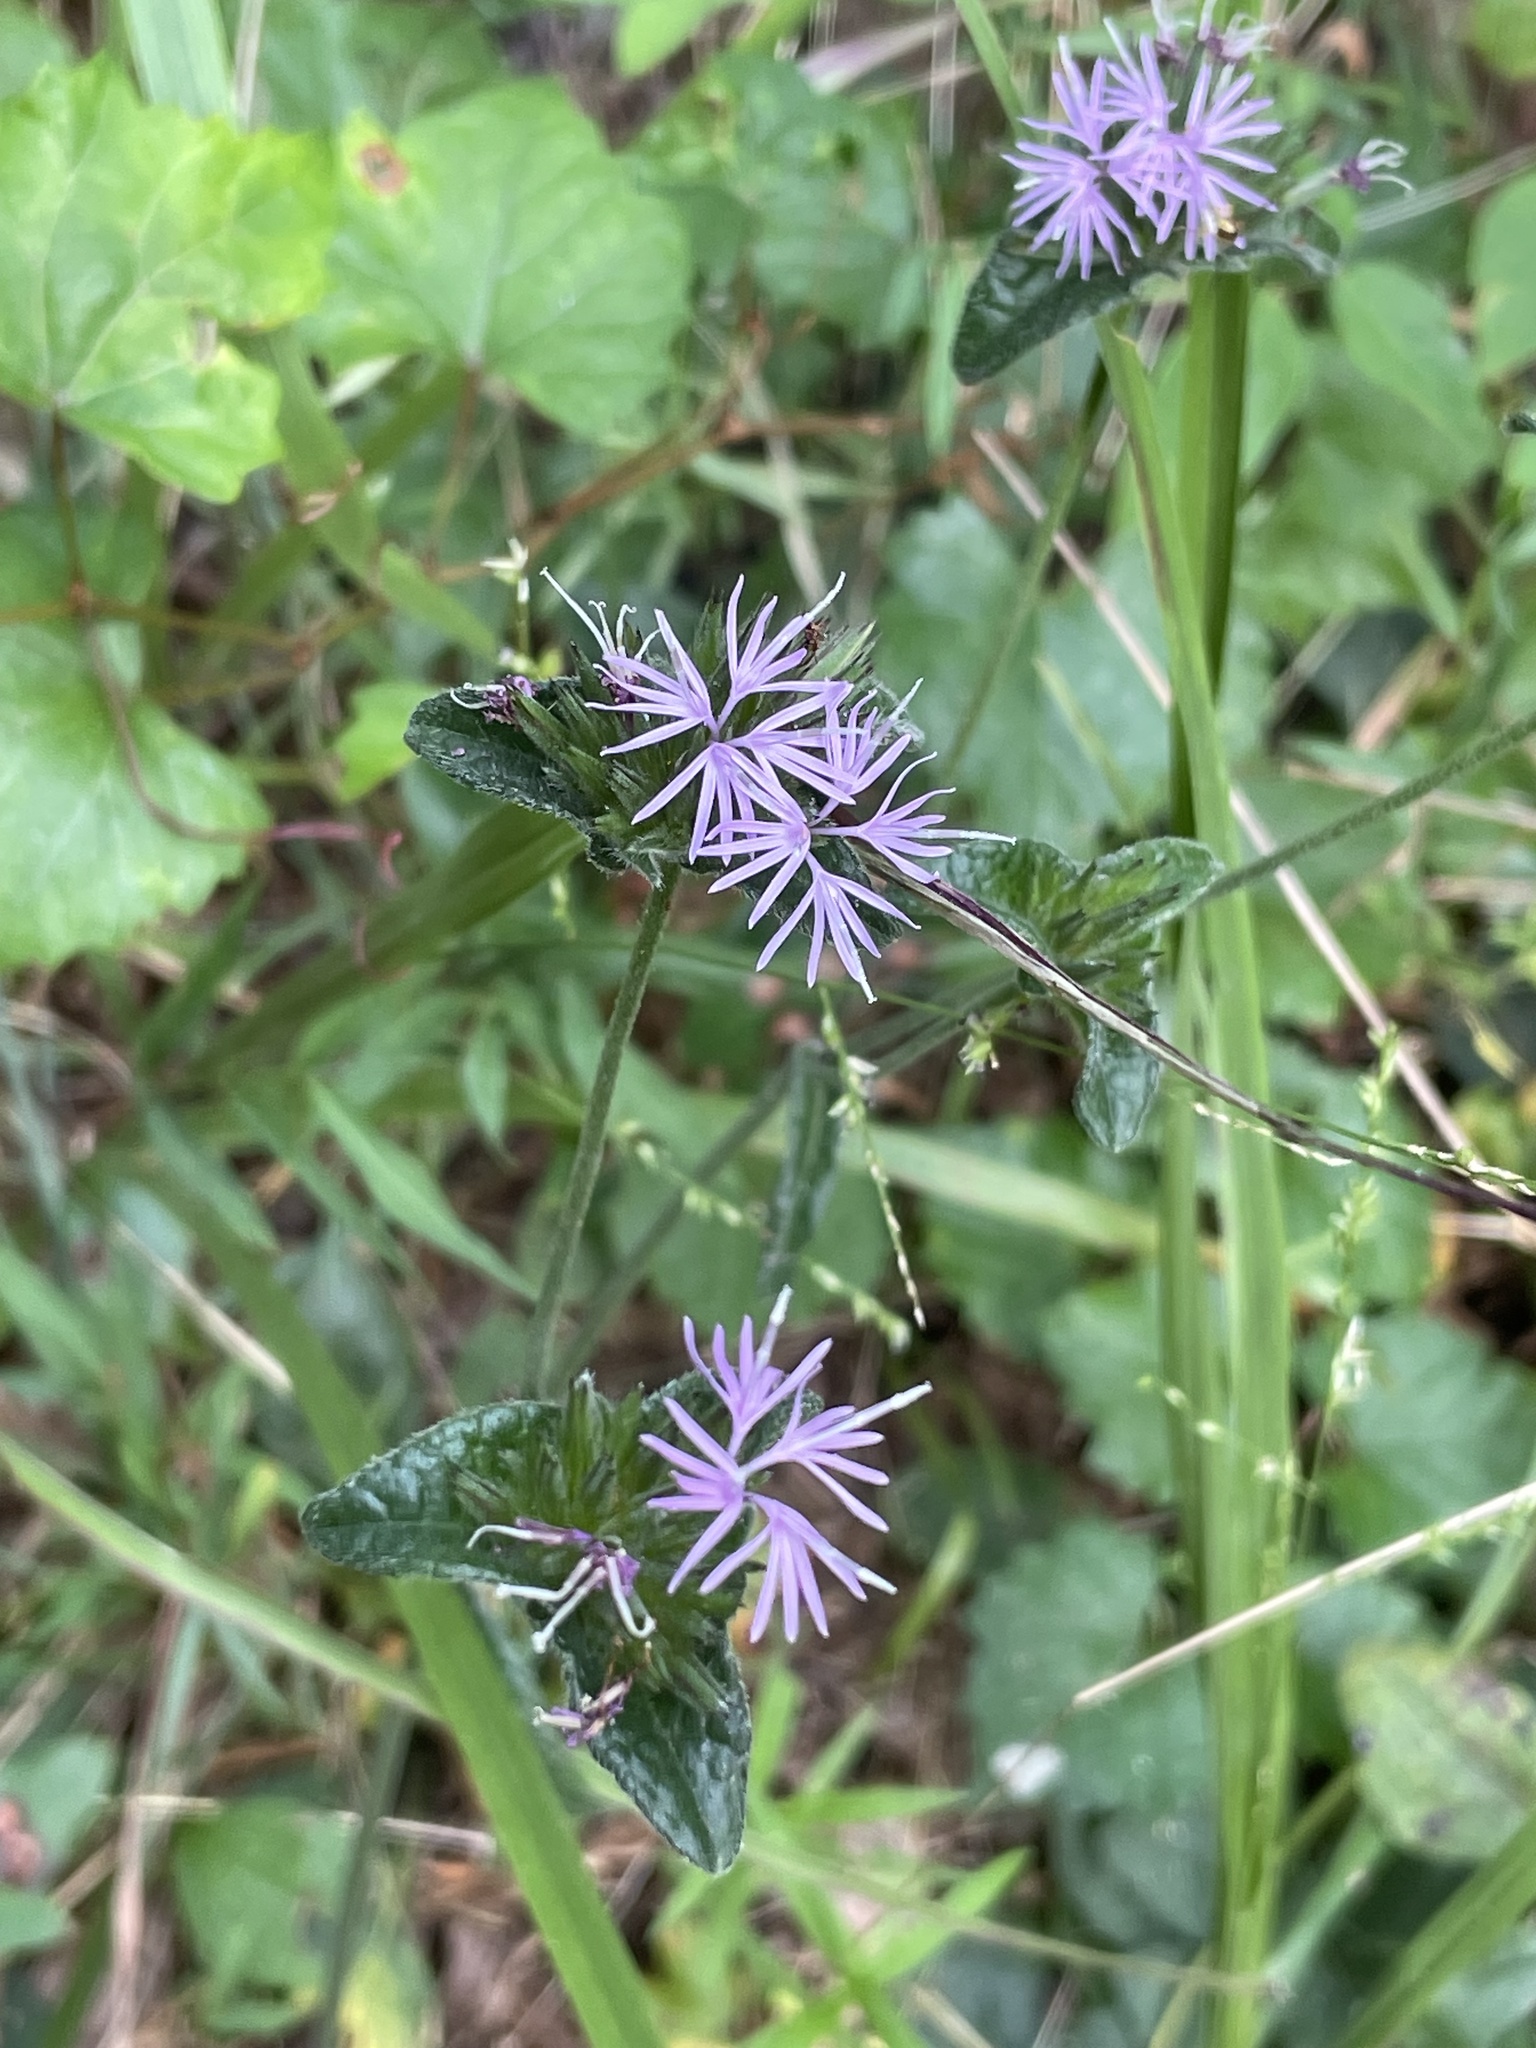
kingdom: Plantae
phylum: Tracheophyta
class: Magnoliopsida
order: Asterales
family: Asteraceae
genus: Elephantopus
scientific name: Elephantopus tomentosus
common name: Tobacco-weed
